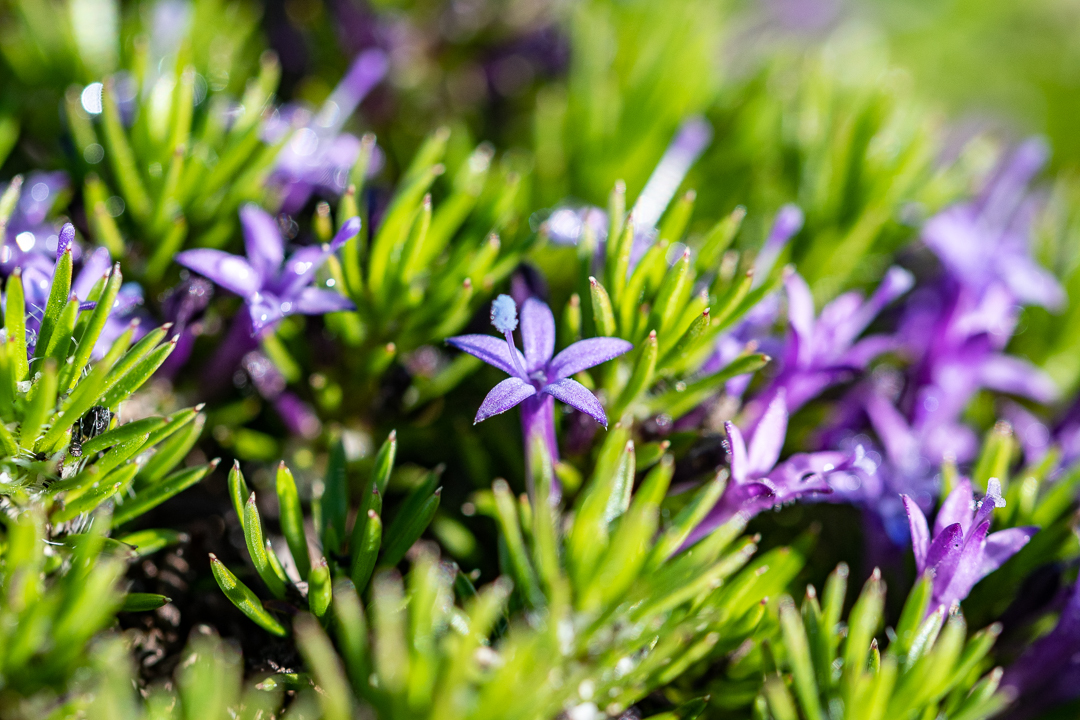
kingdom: Plantae
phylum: Tracheophyta
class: Magnoliopsida
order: Asterales
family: Campanulaceae
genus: Merciera
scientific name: Merciera azurea
